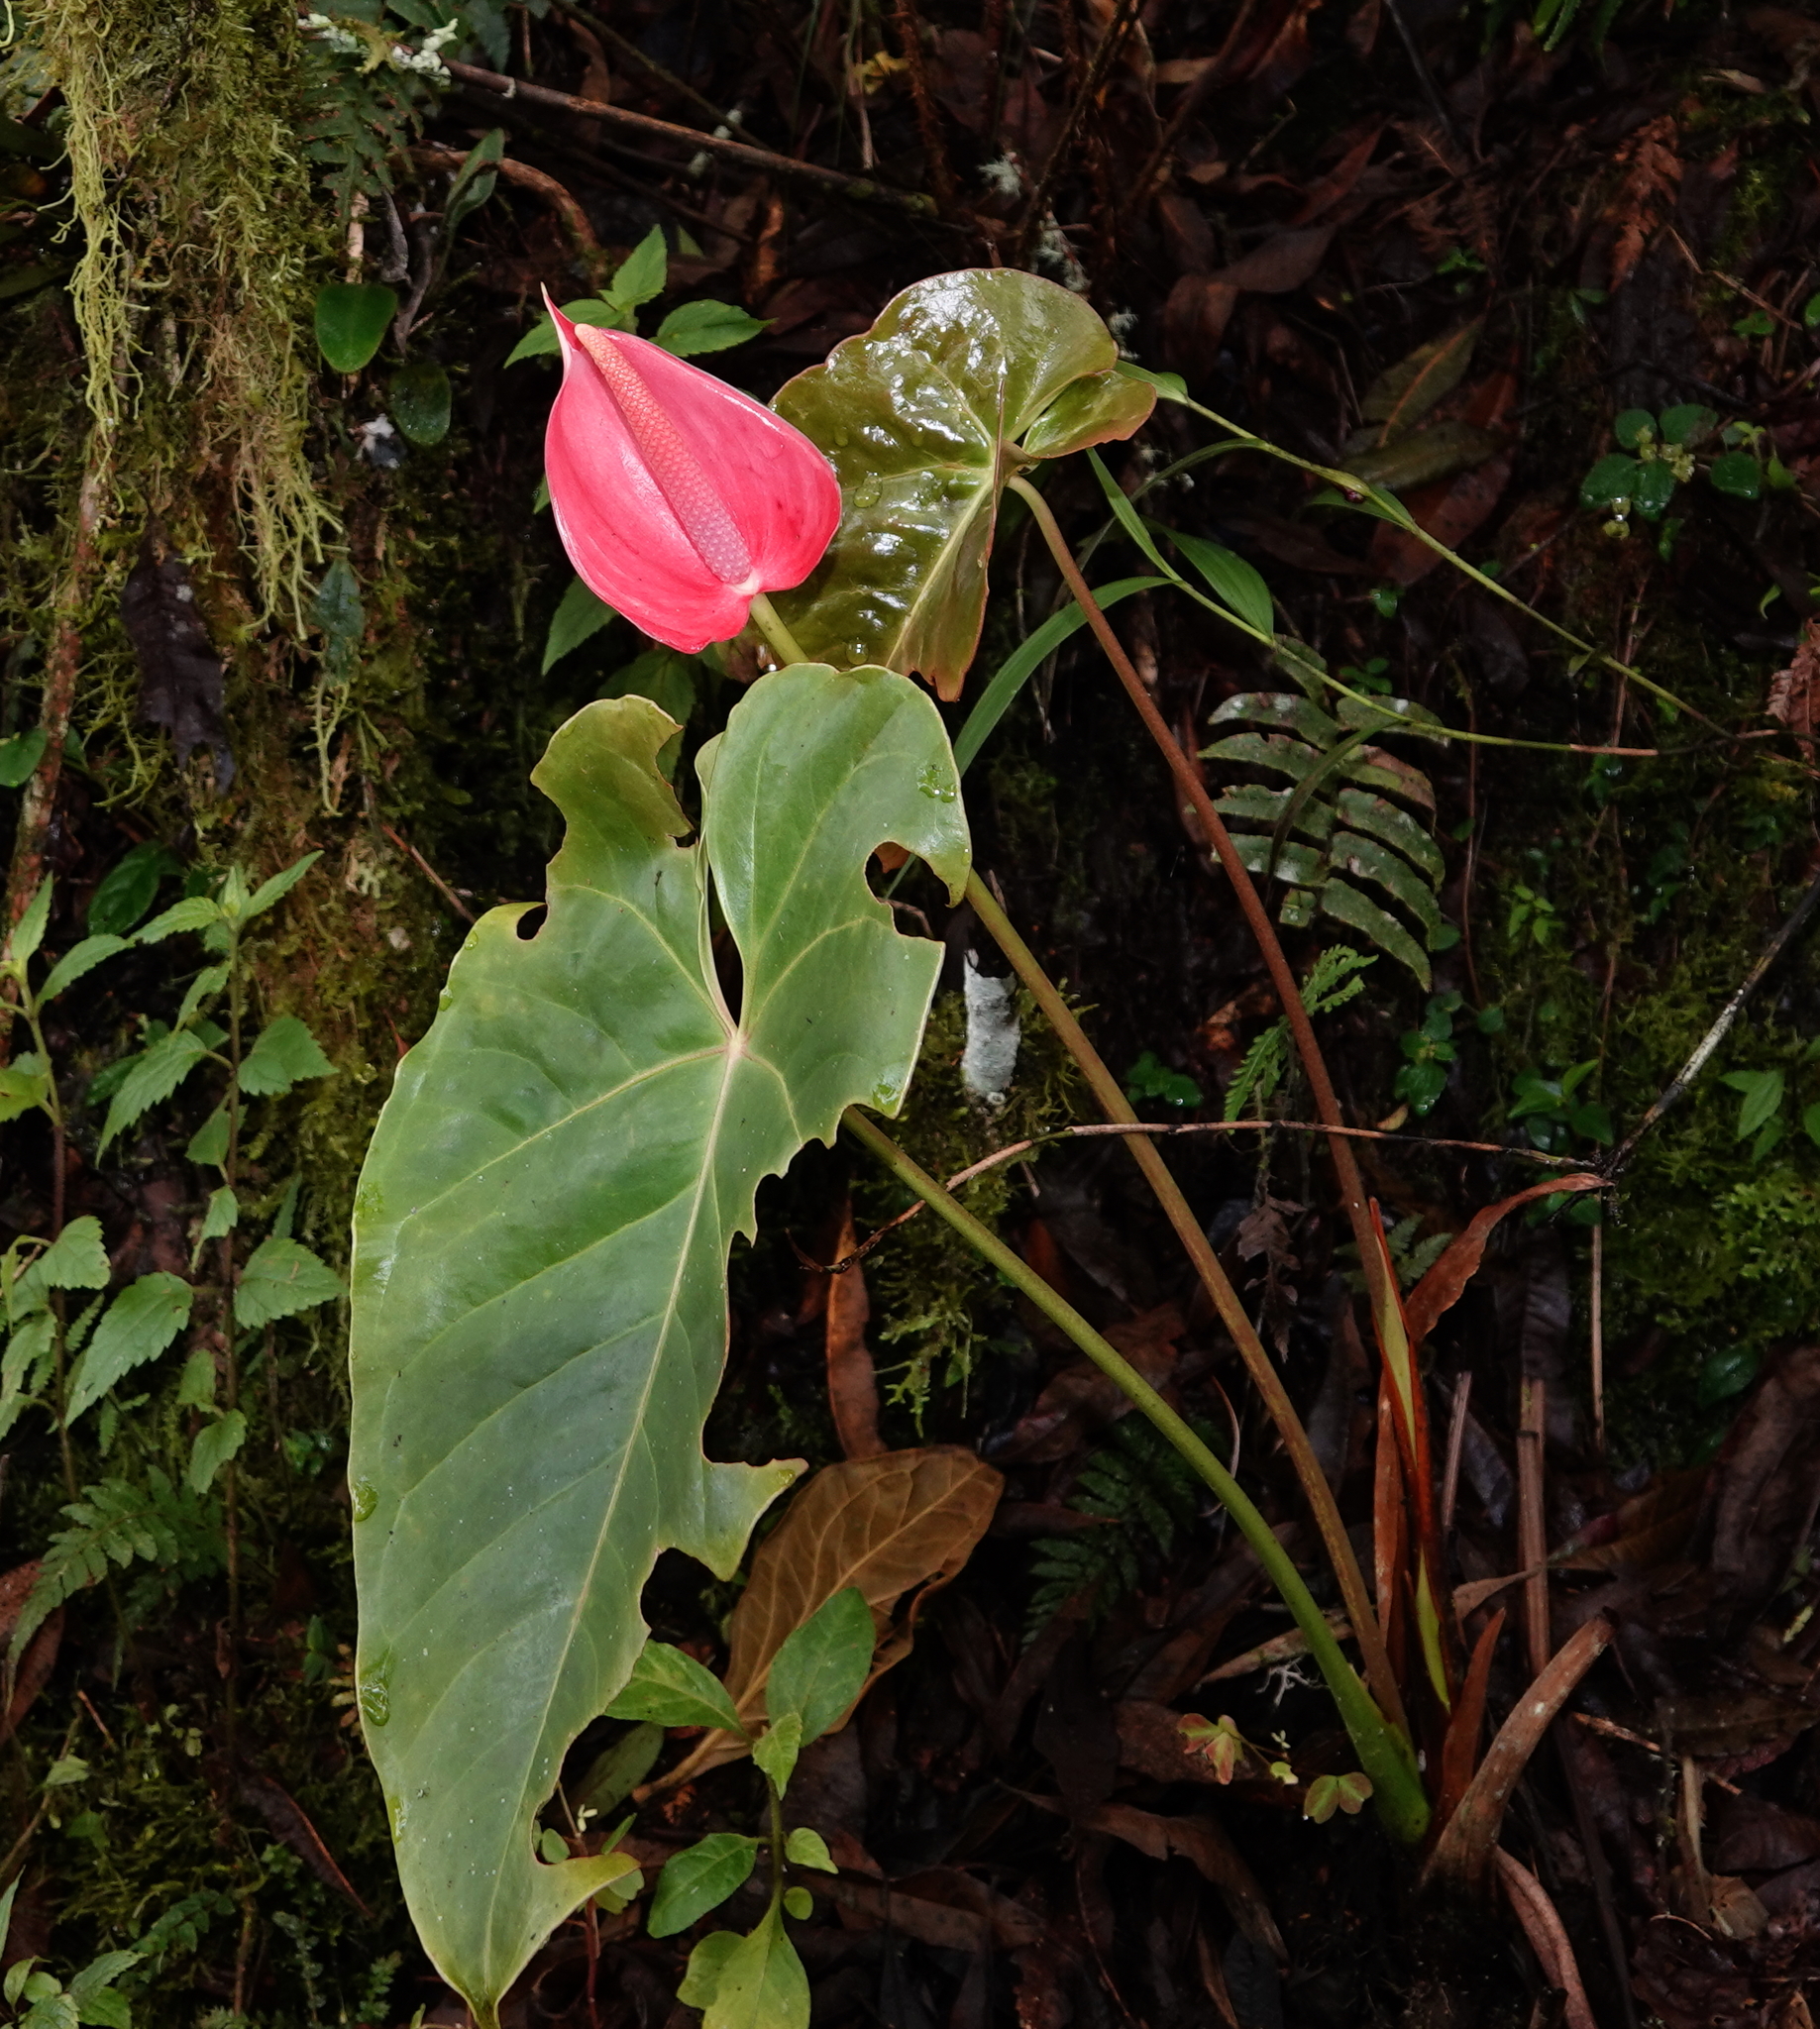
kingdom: Plantae
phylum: Tracheophyta
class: Liliopsida
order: Alismatales
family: Araceae
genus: Anthurium
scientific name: Anthurium andraeanum
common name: Flamingo-flower
